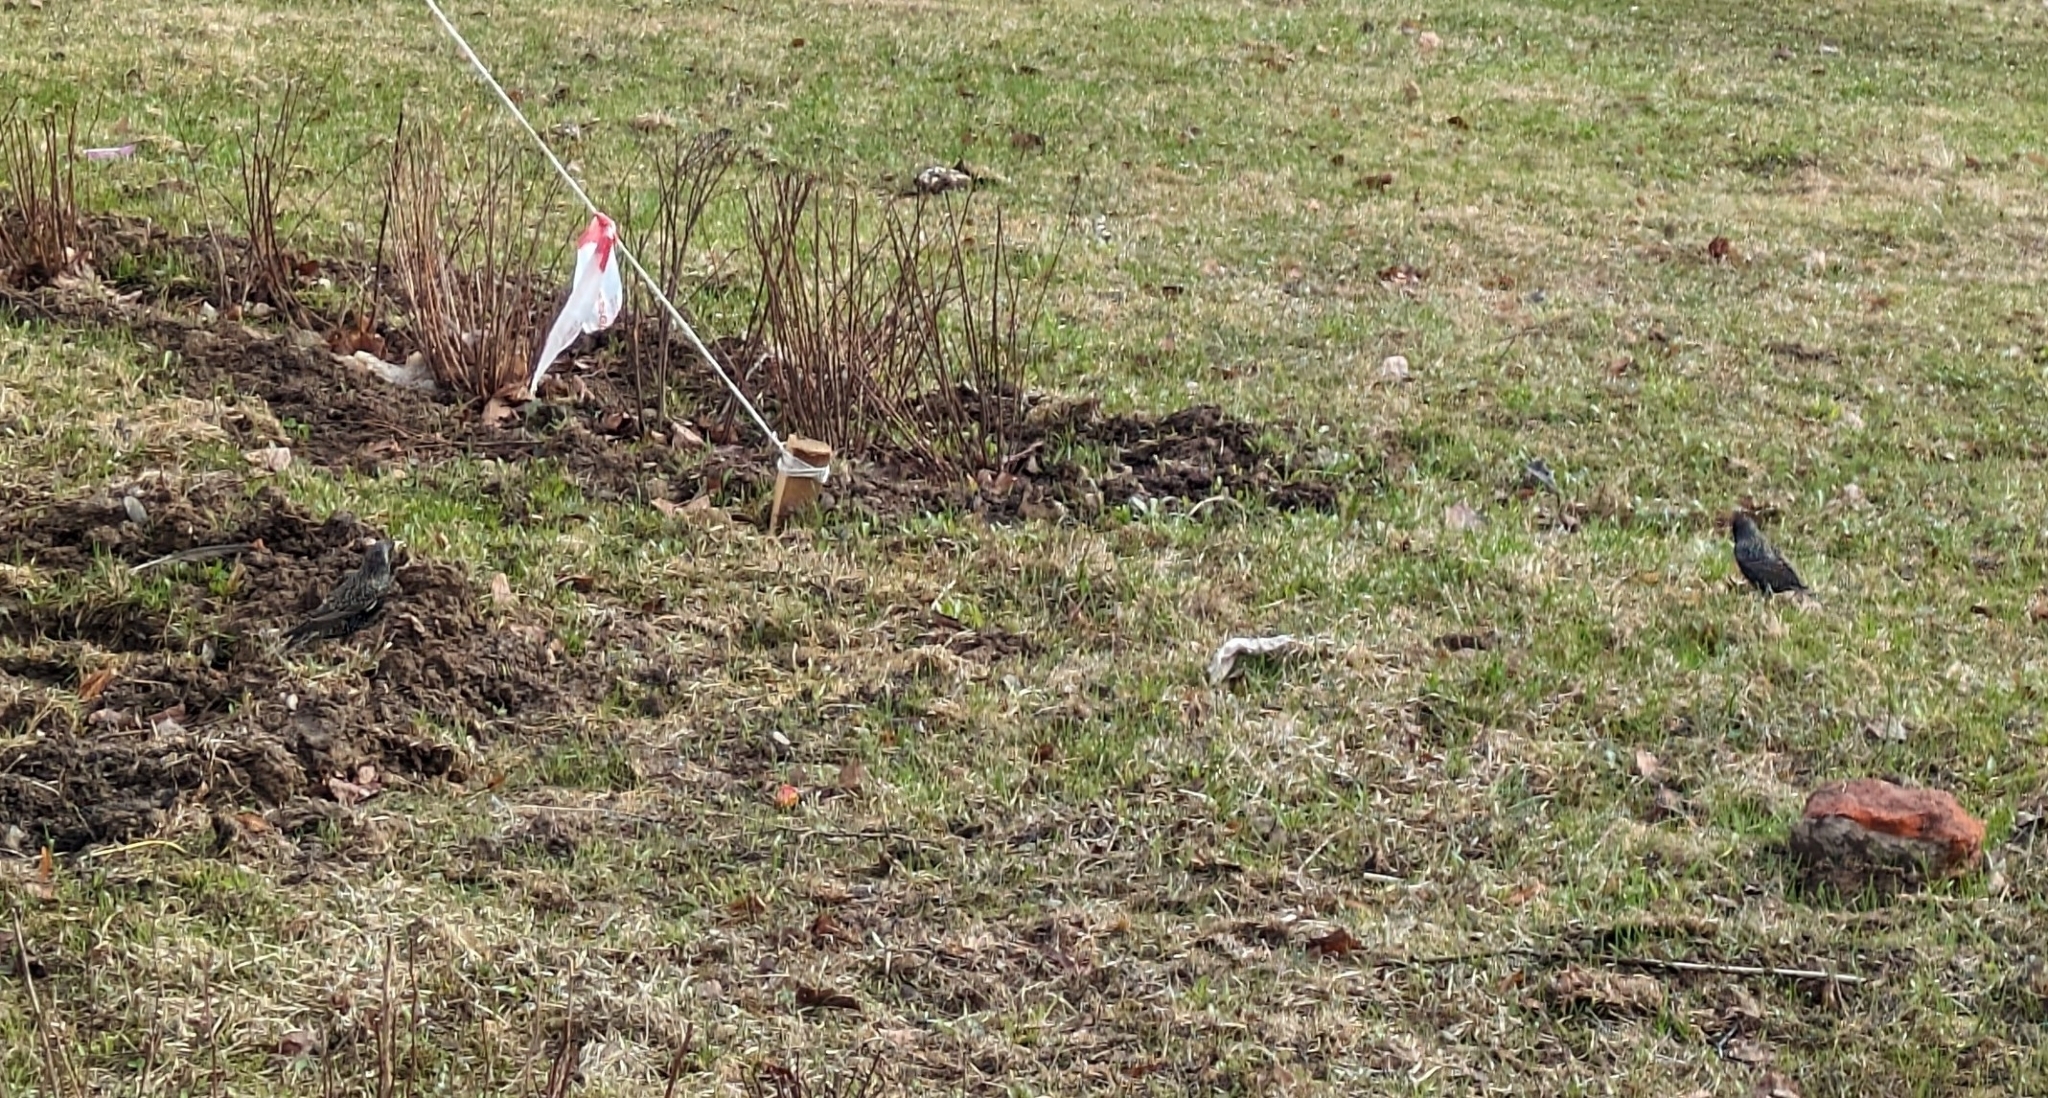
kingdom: Animalia
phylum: Chordata
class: Aves
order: Passeriformes
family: Sturnidae
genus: Sturnus
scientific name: Sturnus vulgaris
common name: Common starling
